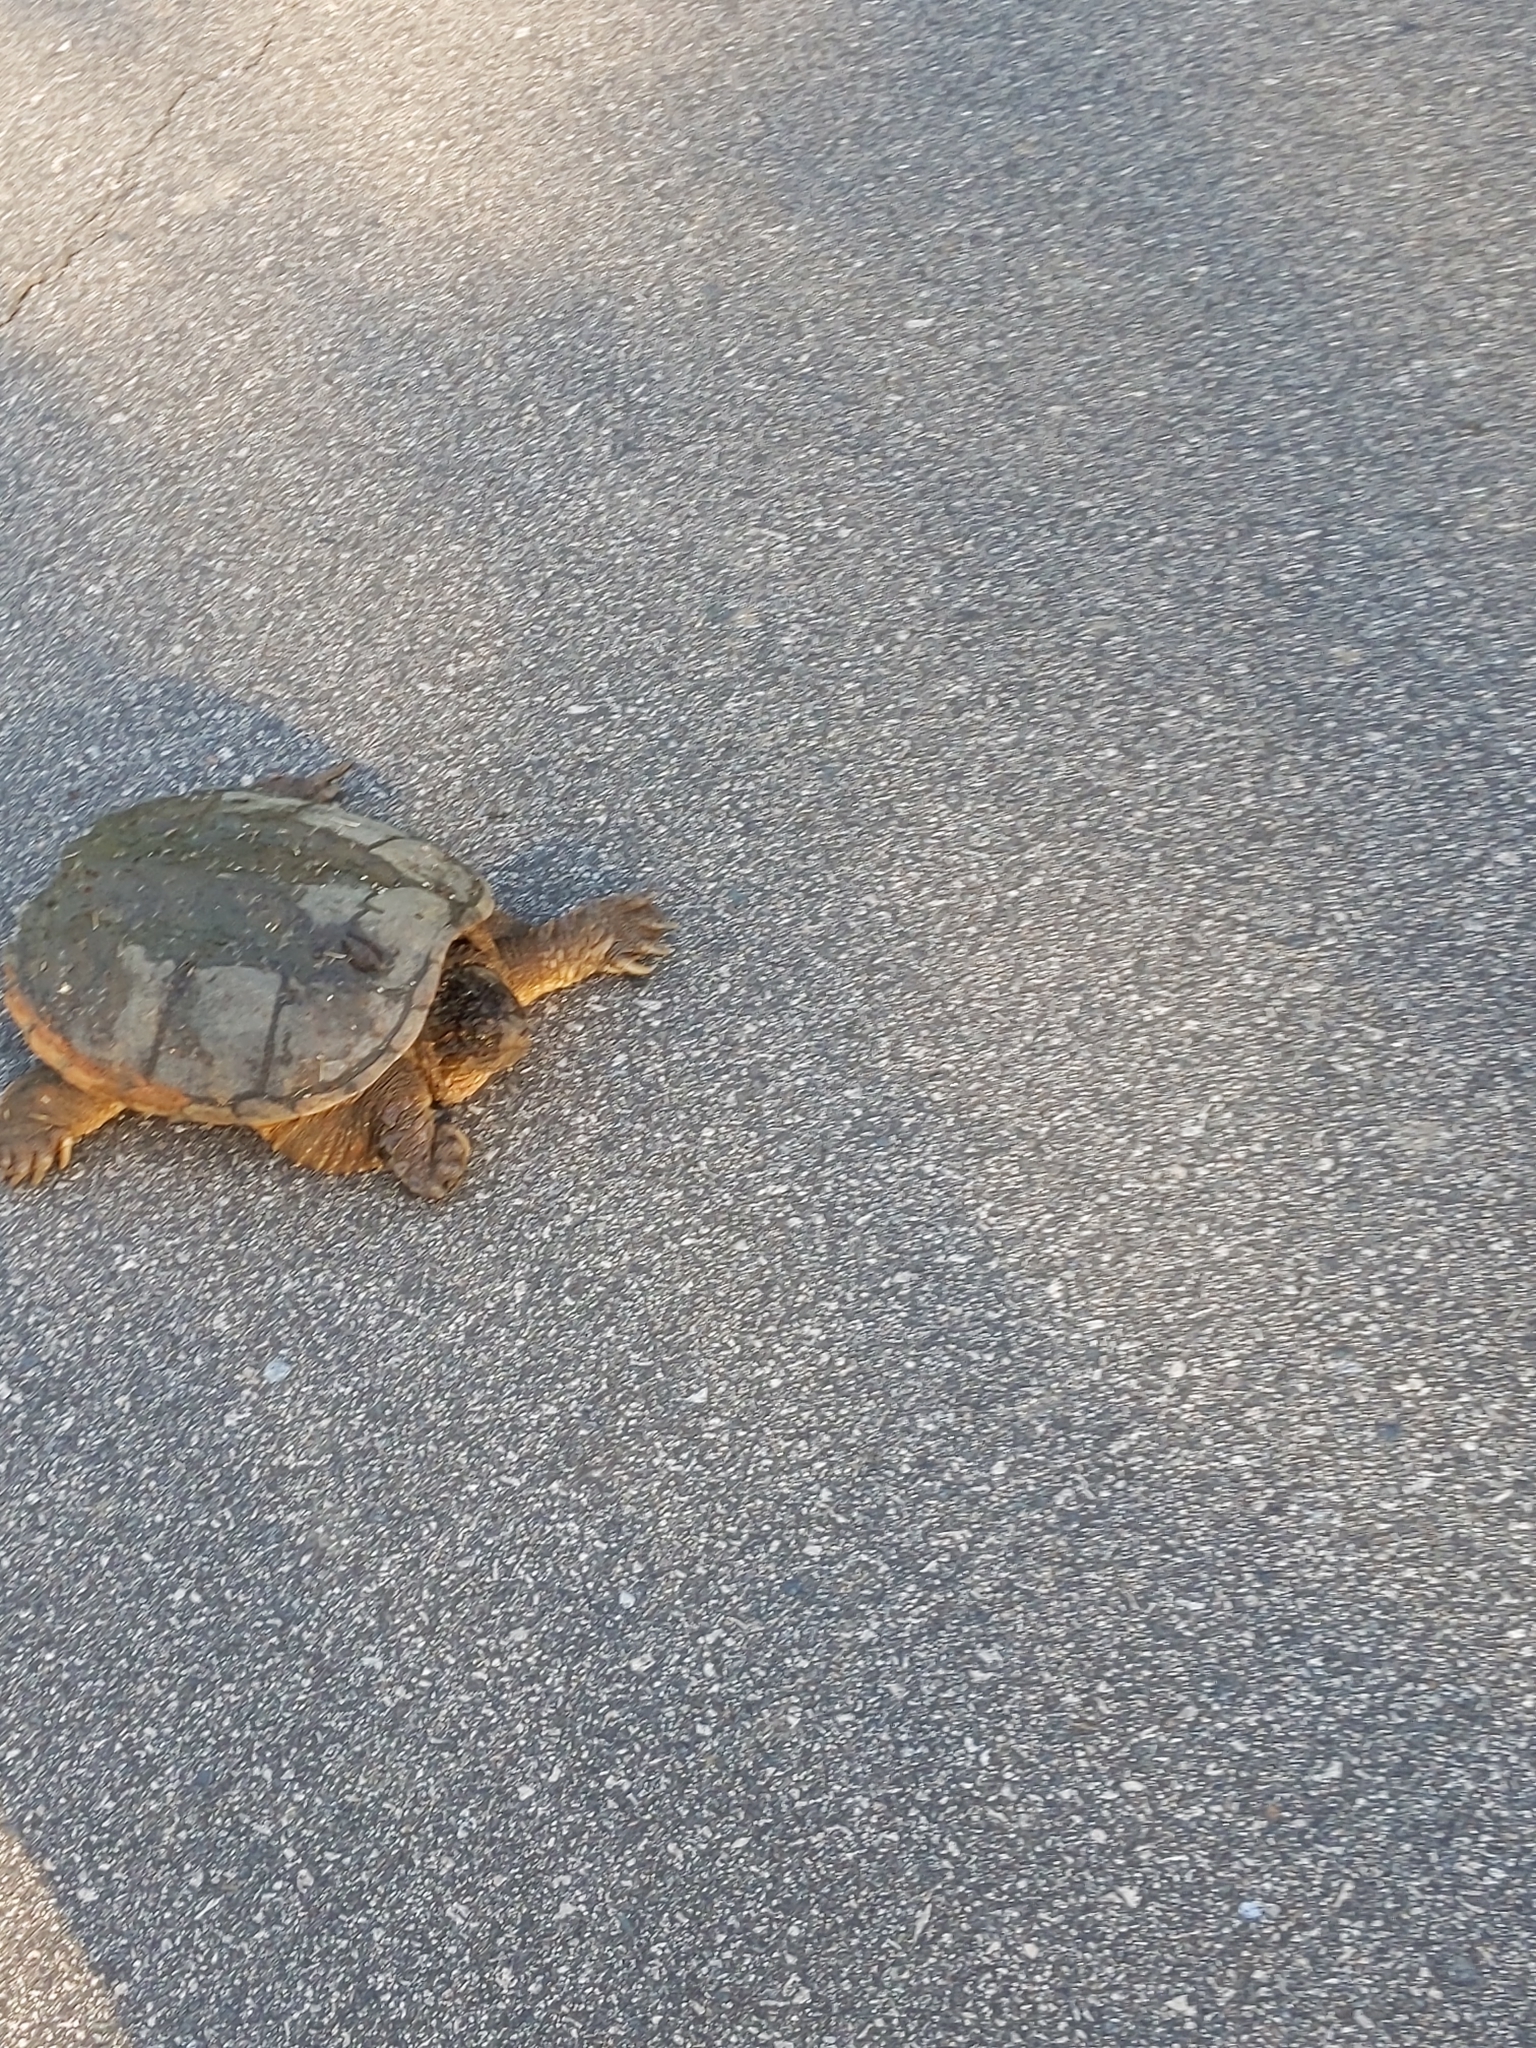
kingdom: Animalia
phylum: Chordata
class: Testudines
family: Chelydridae
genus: Chelydra
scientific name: Chelydra serpentina
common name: Common snapping turtle
